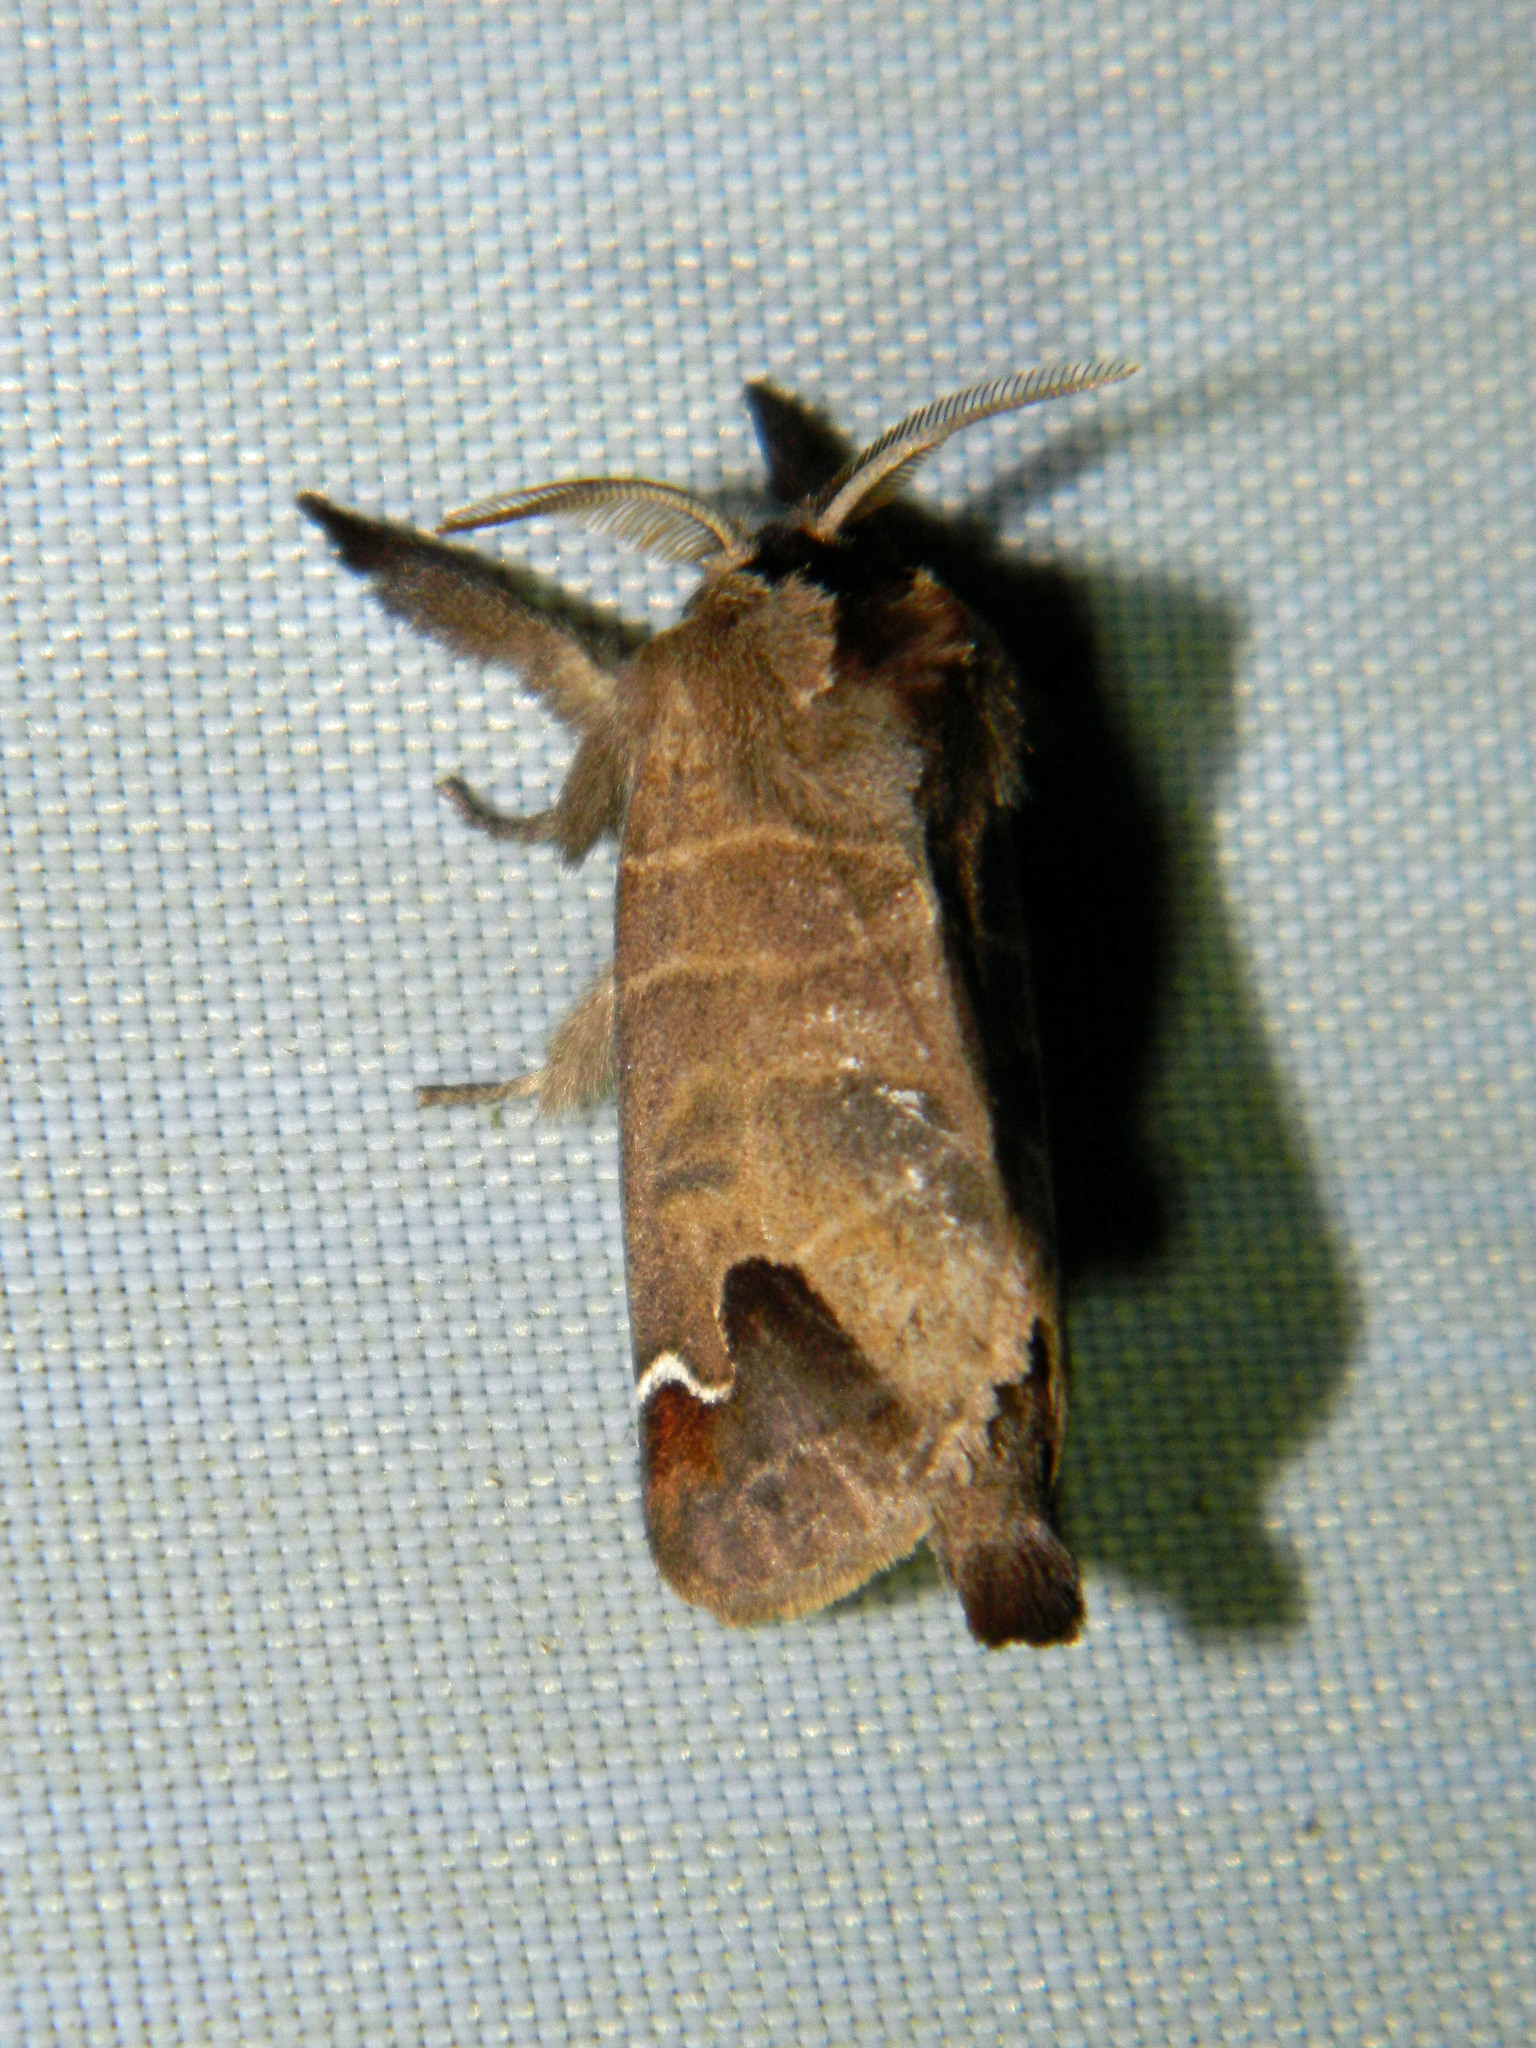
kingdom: Animalia
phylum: Arthropoda
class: Insecta
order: Lepidoptera
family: Notodontidae
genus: Clostera
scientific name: Clostera albosigma
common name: Sigmoid prominent
